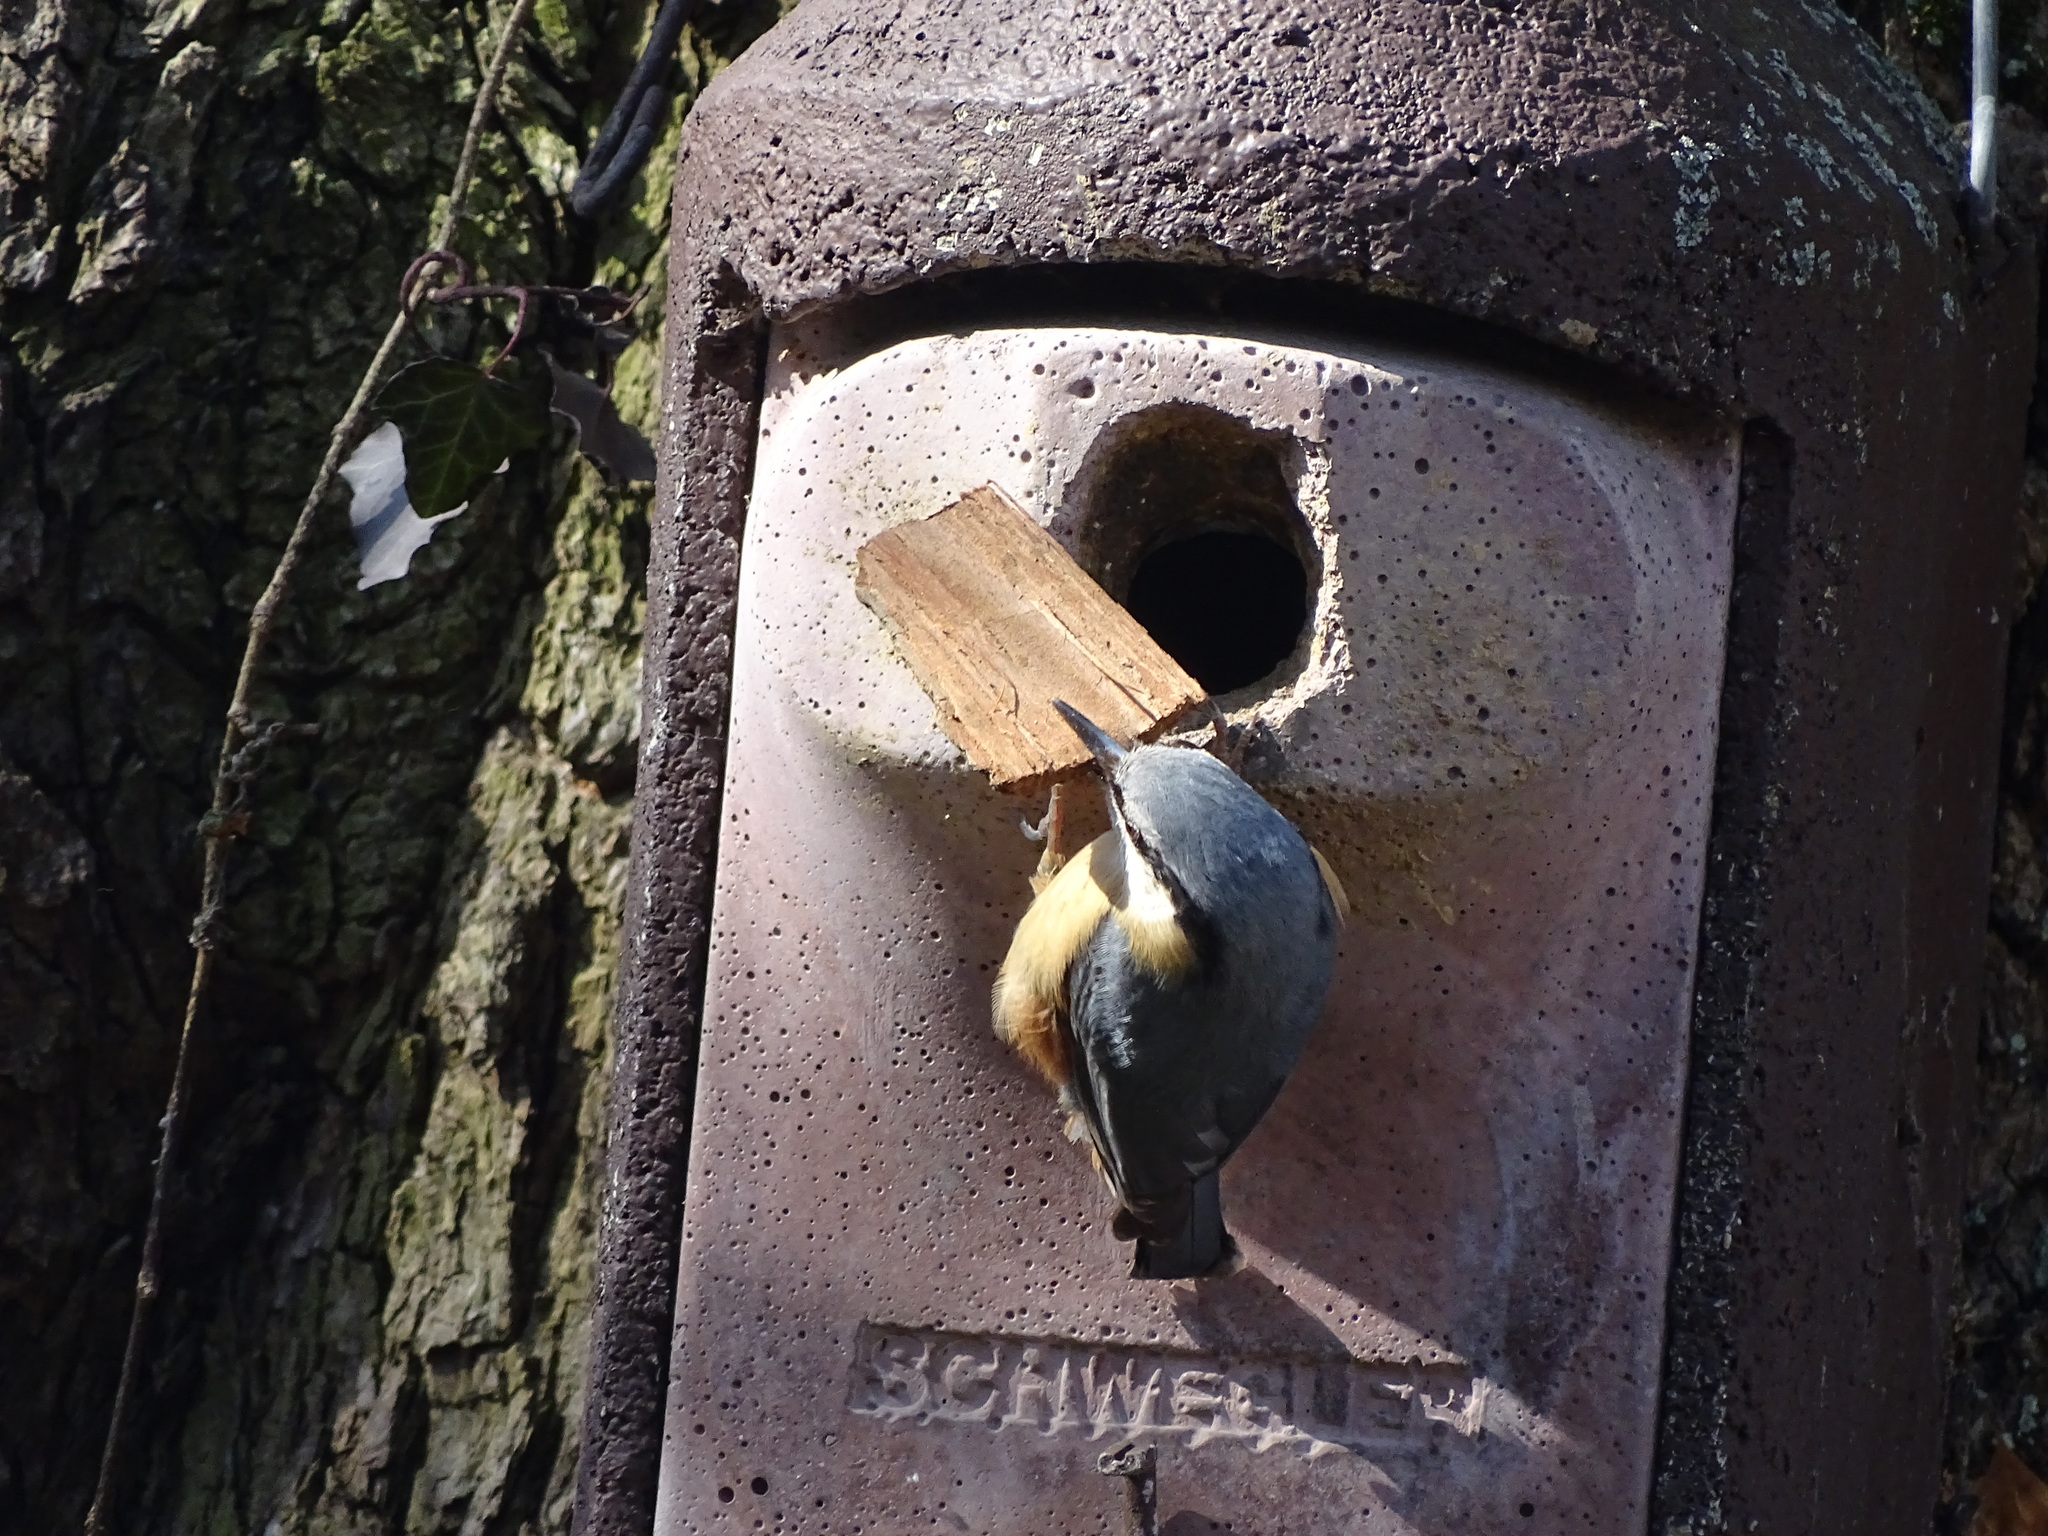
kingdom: Animalia
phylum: Chordata
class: Aves
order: Passeriformes
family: Sittidae
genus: Sitta
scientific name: Sitta europaea
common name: Eurasian nuthatch
